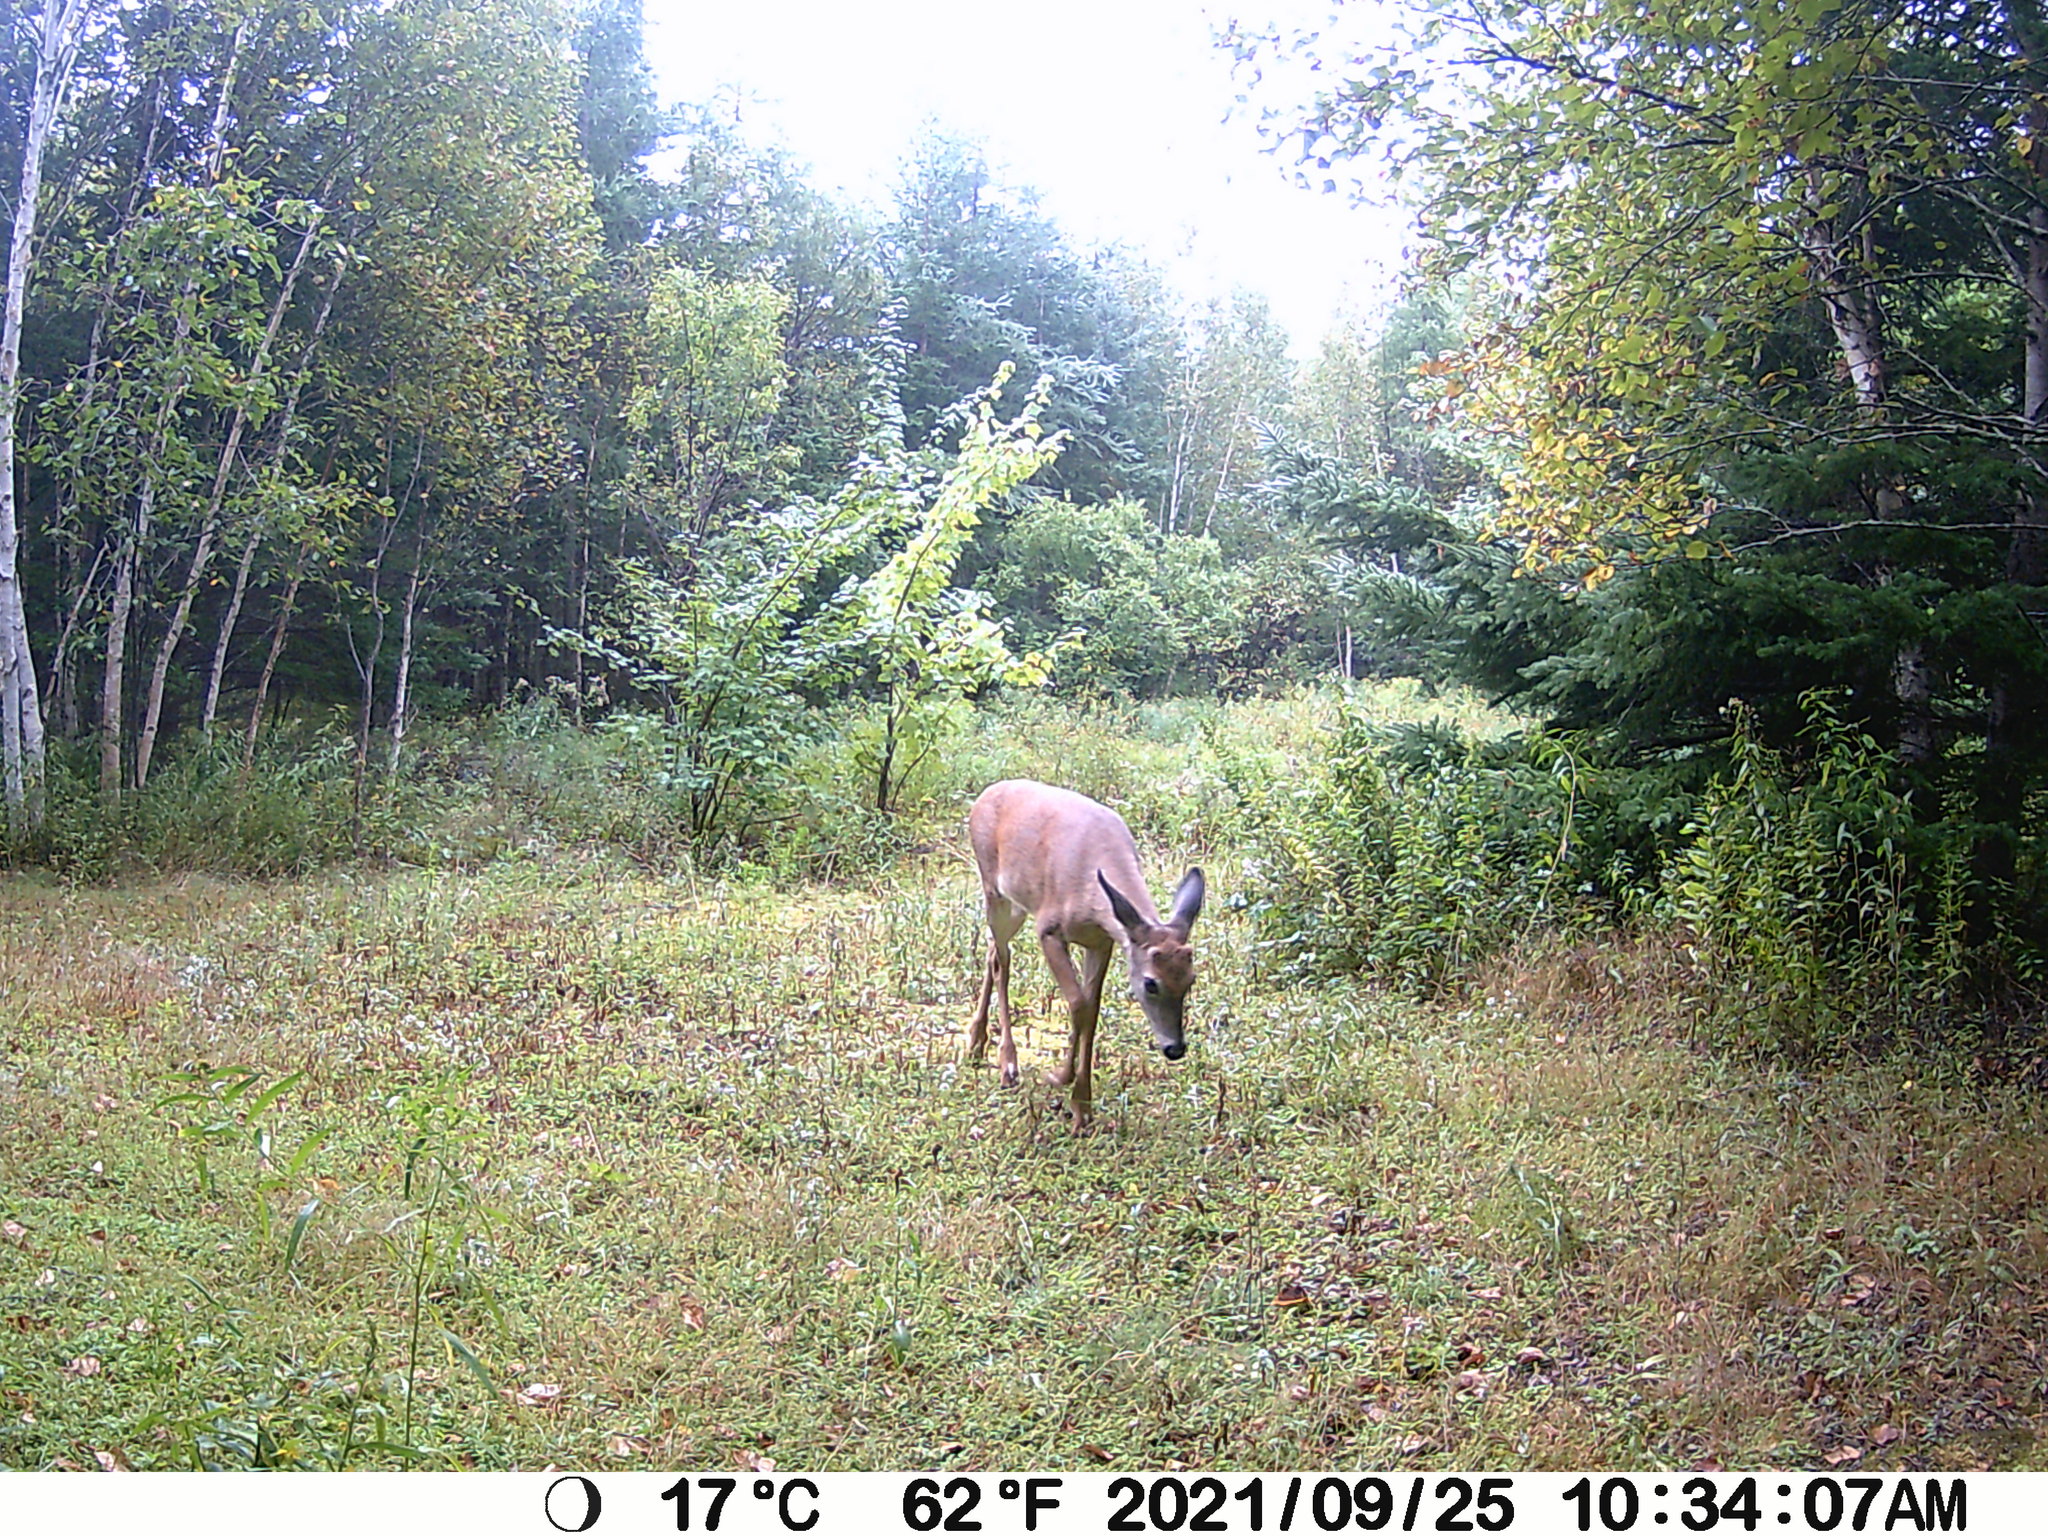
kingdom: Animalia
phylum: Chordata
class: Mammalia
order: Artiodactyla
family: Cervidae
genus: Odocoileus
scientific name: Odocoileus virginianus
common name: White-tailed deer
